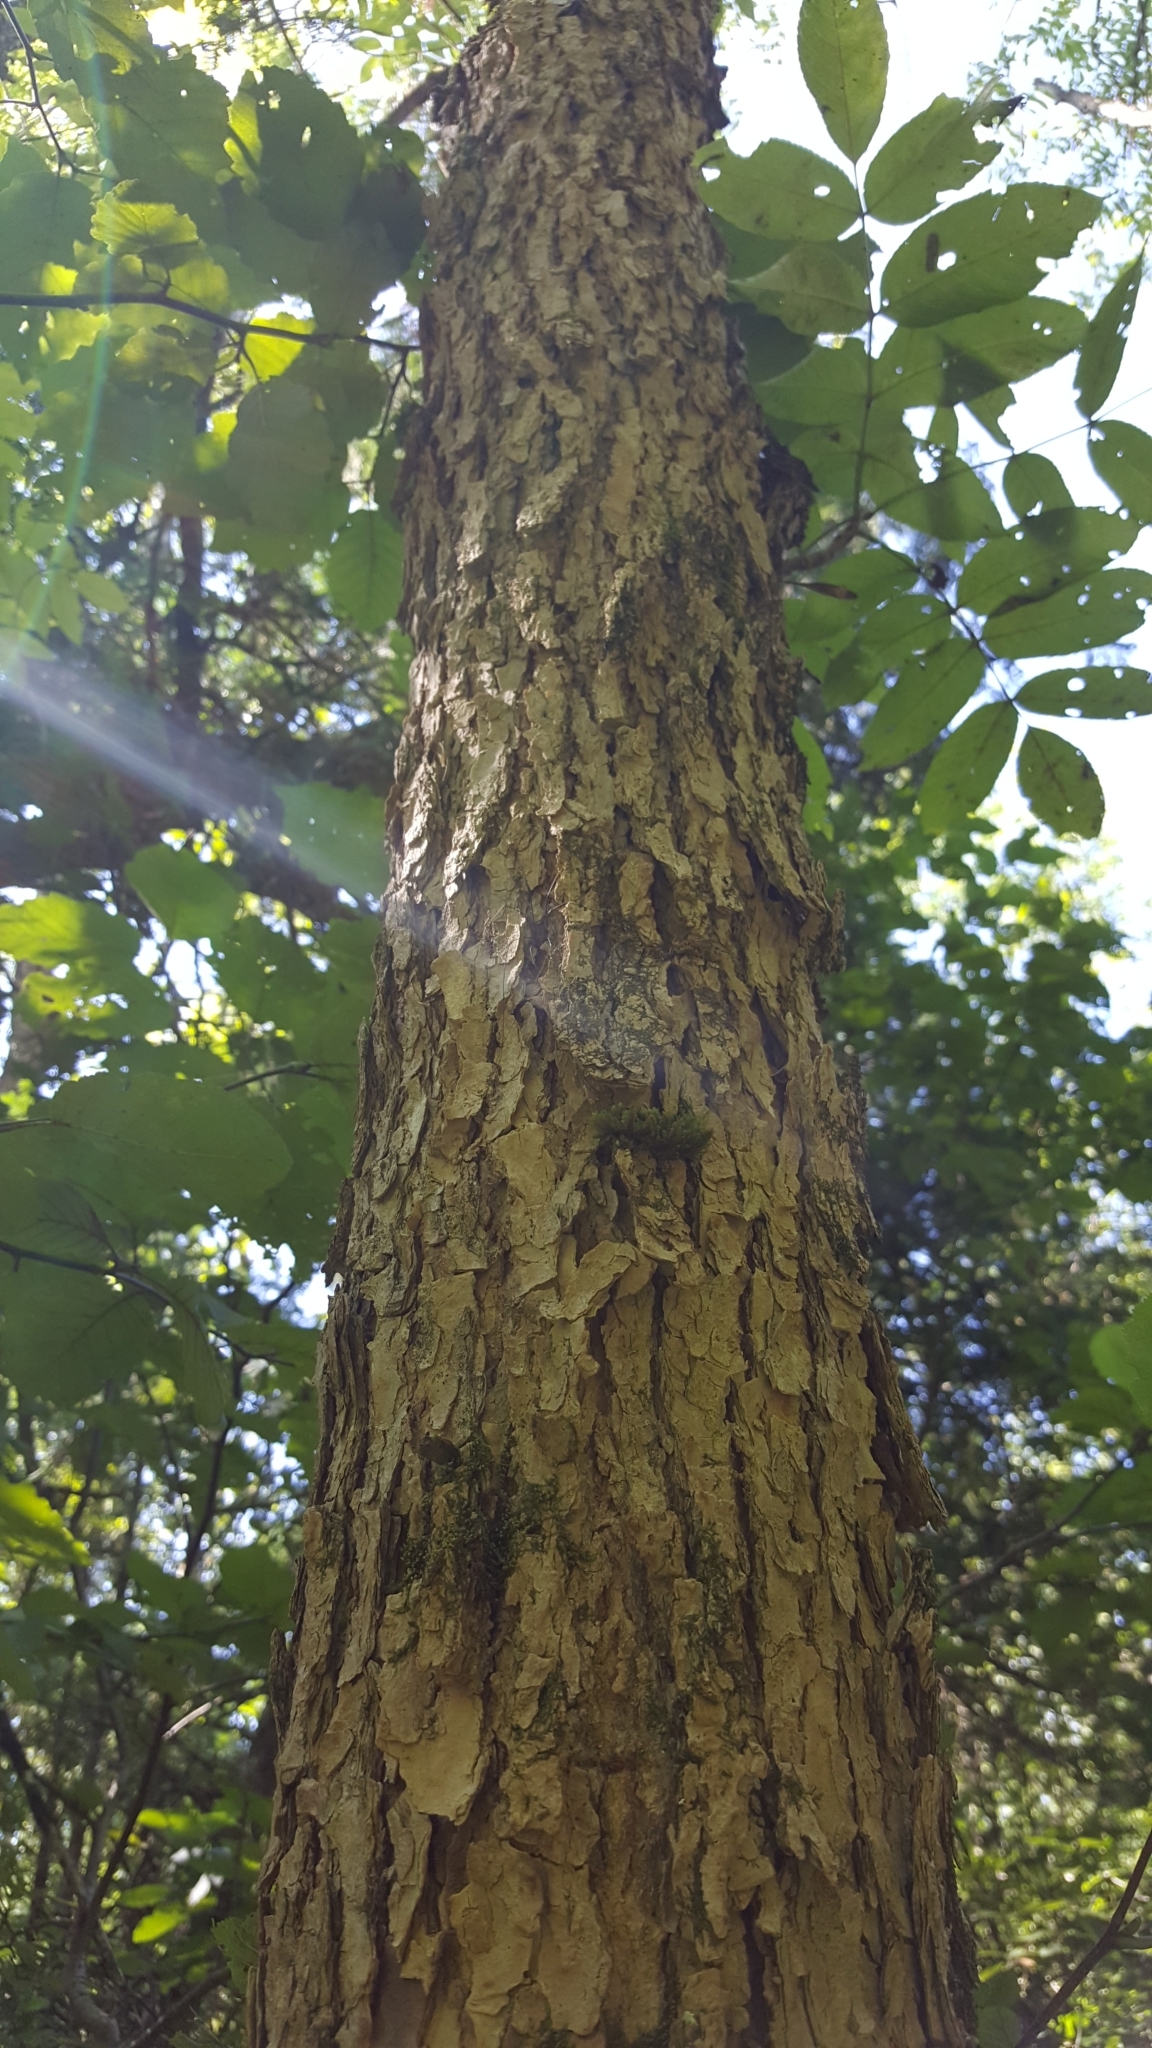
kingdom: Plantae
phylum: Tracheophyta
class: Magnoliopsida
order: Lamiales
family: Oleaceae
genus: Fraxinus
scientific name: Fraxinus nigra
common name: Black ash
